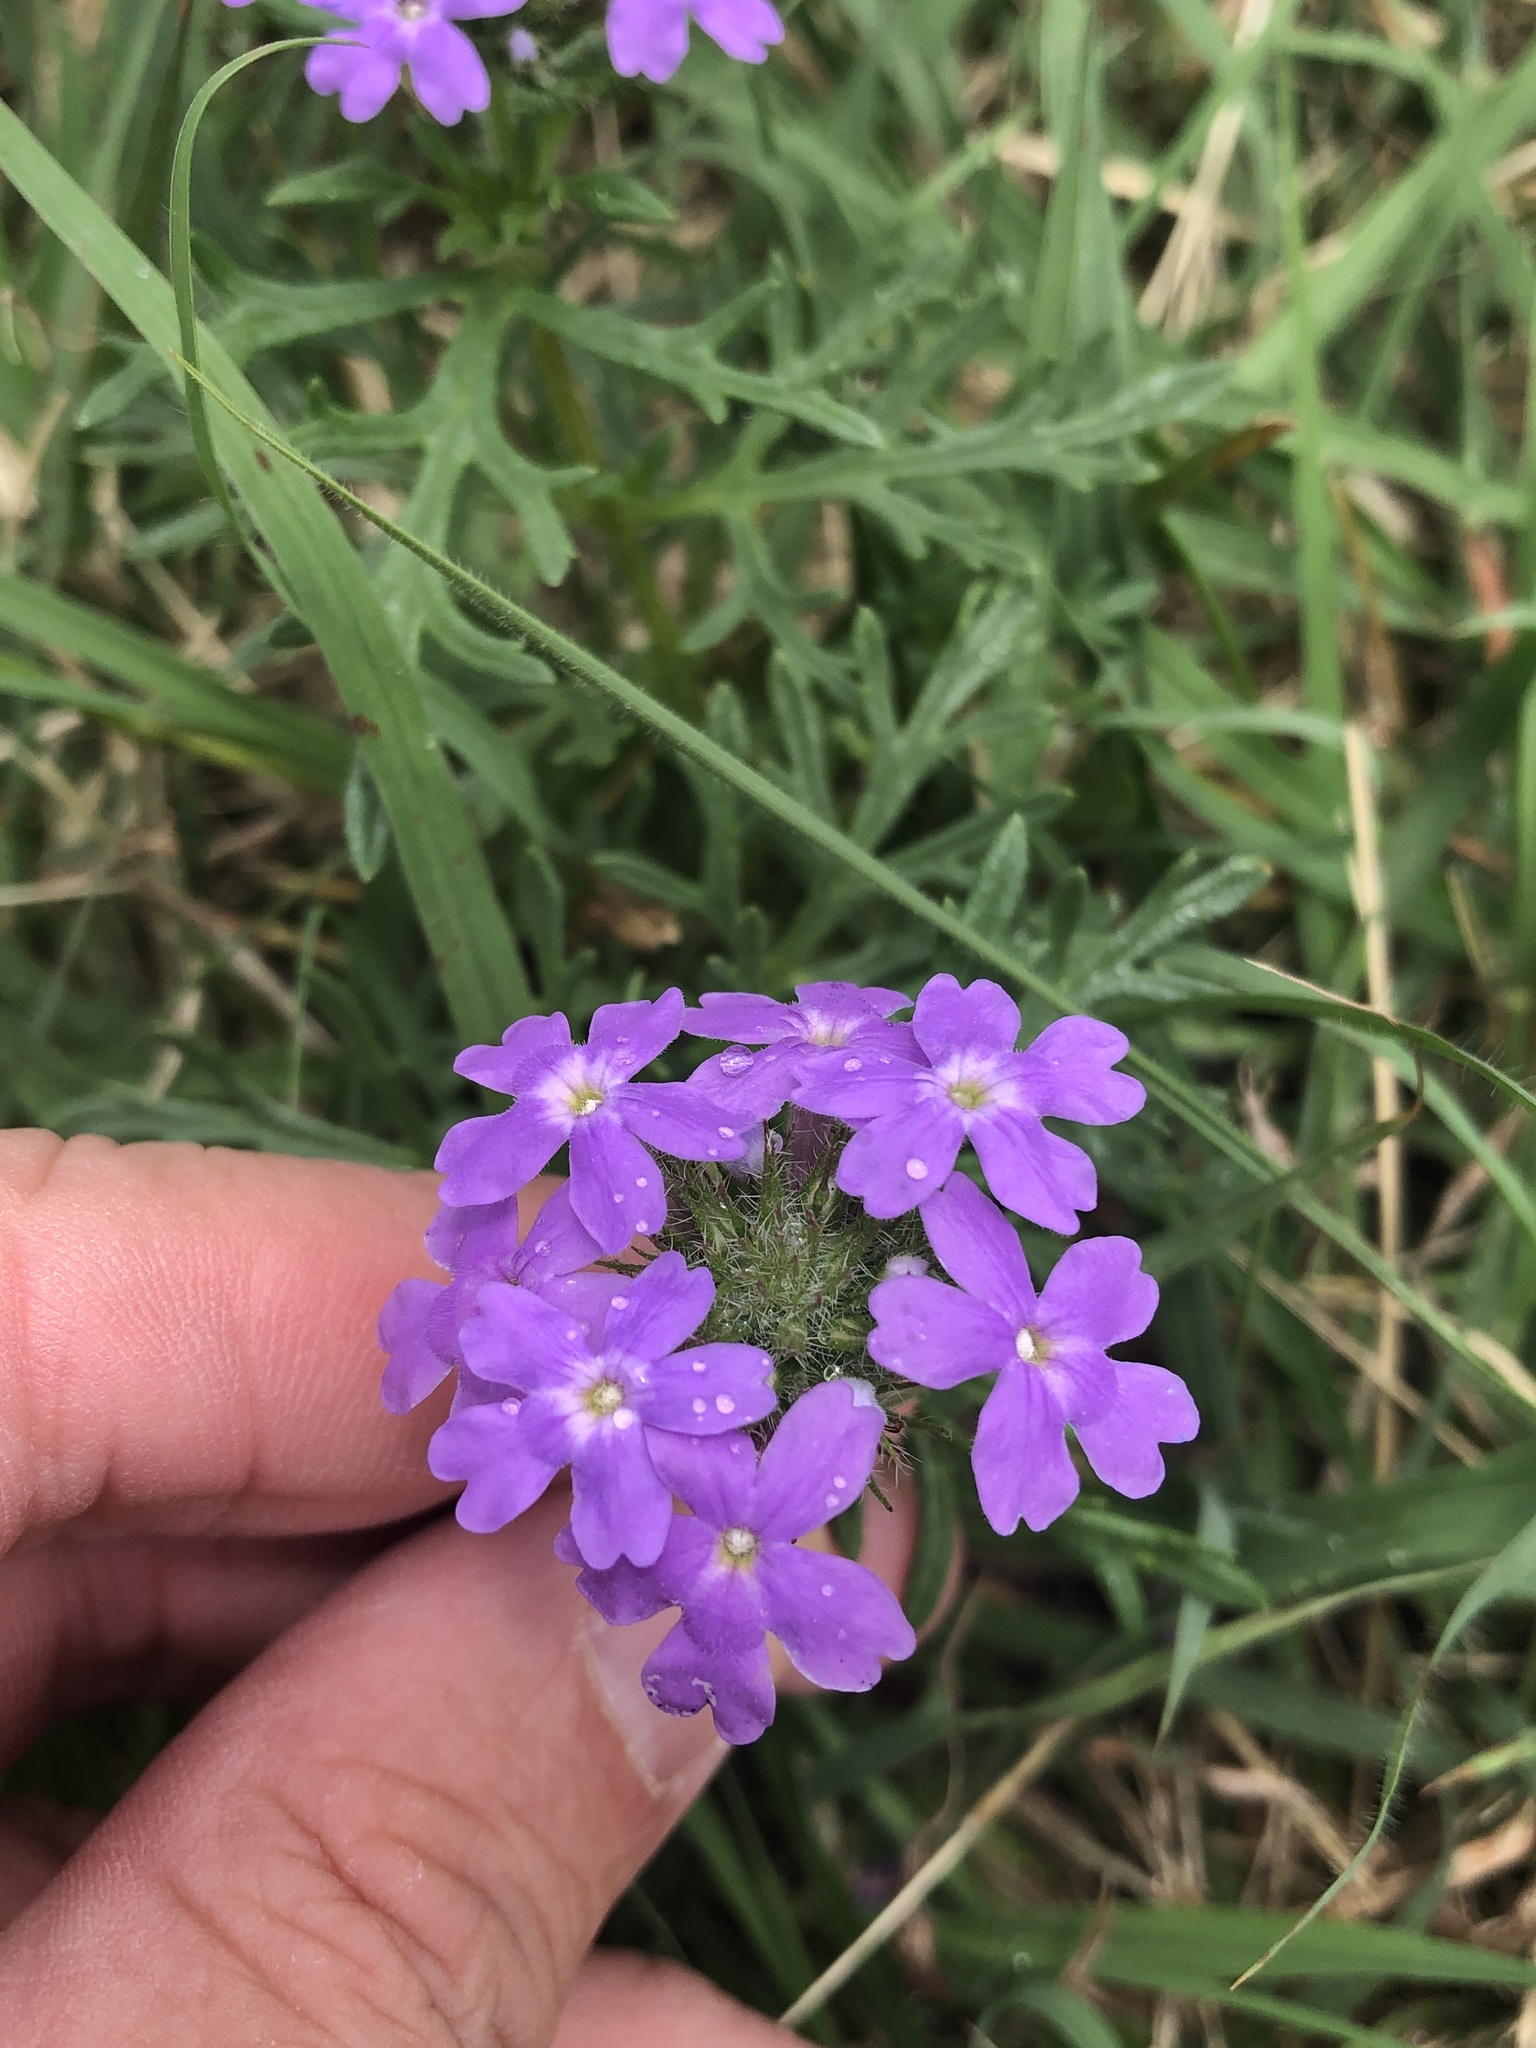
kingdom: Plantae
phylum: Tracheophyta
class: Magnoliopsida
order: Lamiales
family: Verbenaceae
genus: Verbena
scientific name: Verbena bipinnatifida
